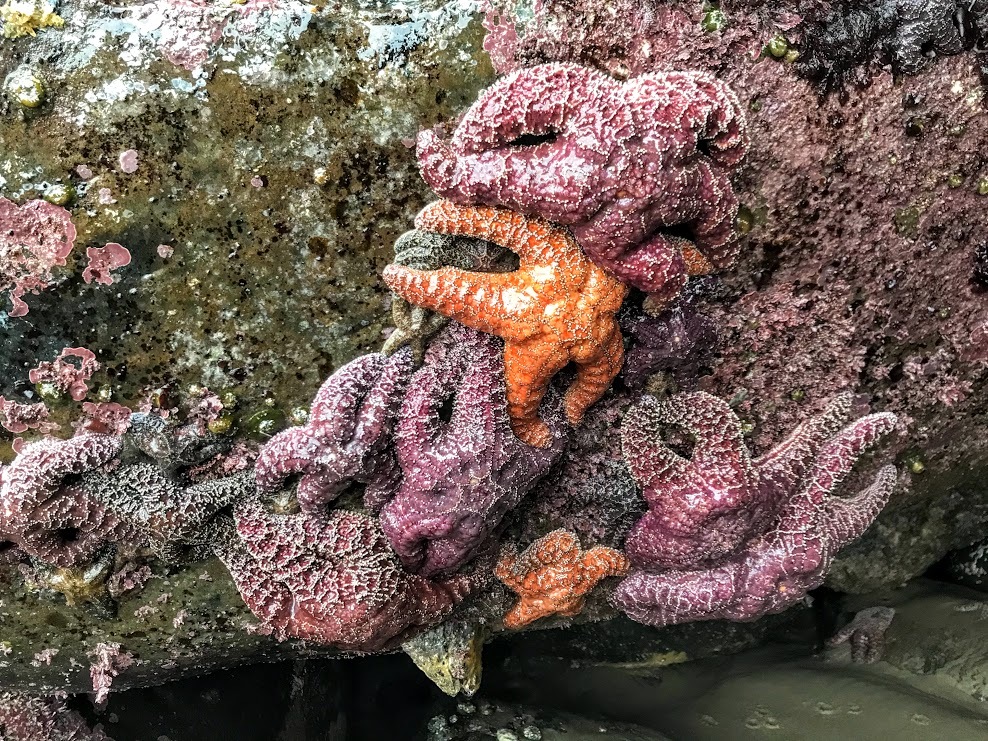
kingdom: Animalia
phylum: Echinodermata
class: Asteroidea
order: Forcipulatida
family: Asteriidae
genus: Pisaster
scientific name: Pisaster ochraceus
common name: Ochre stars
